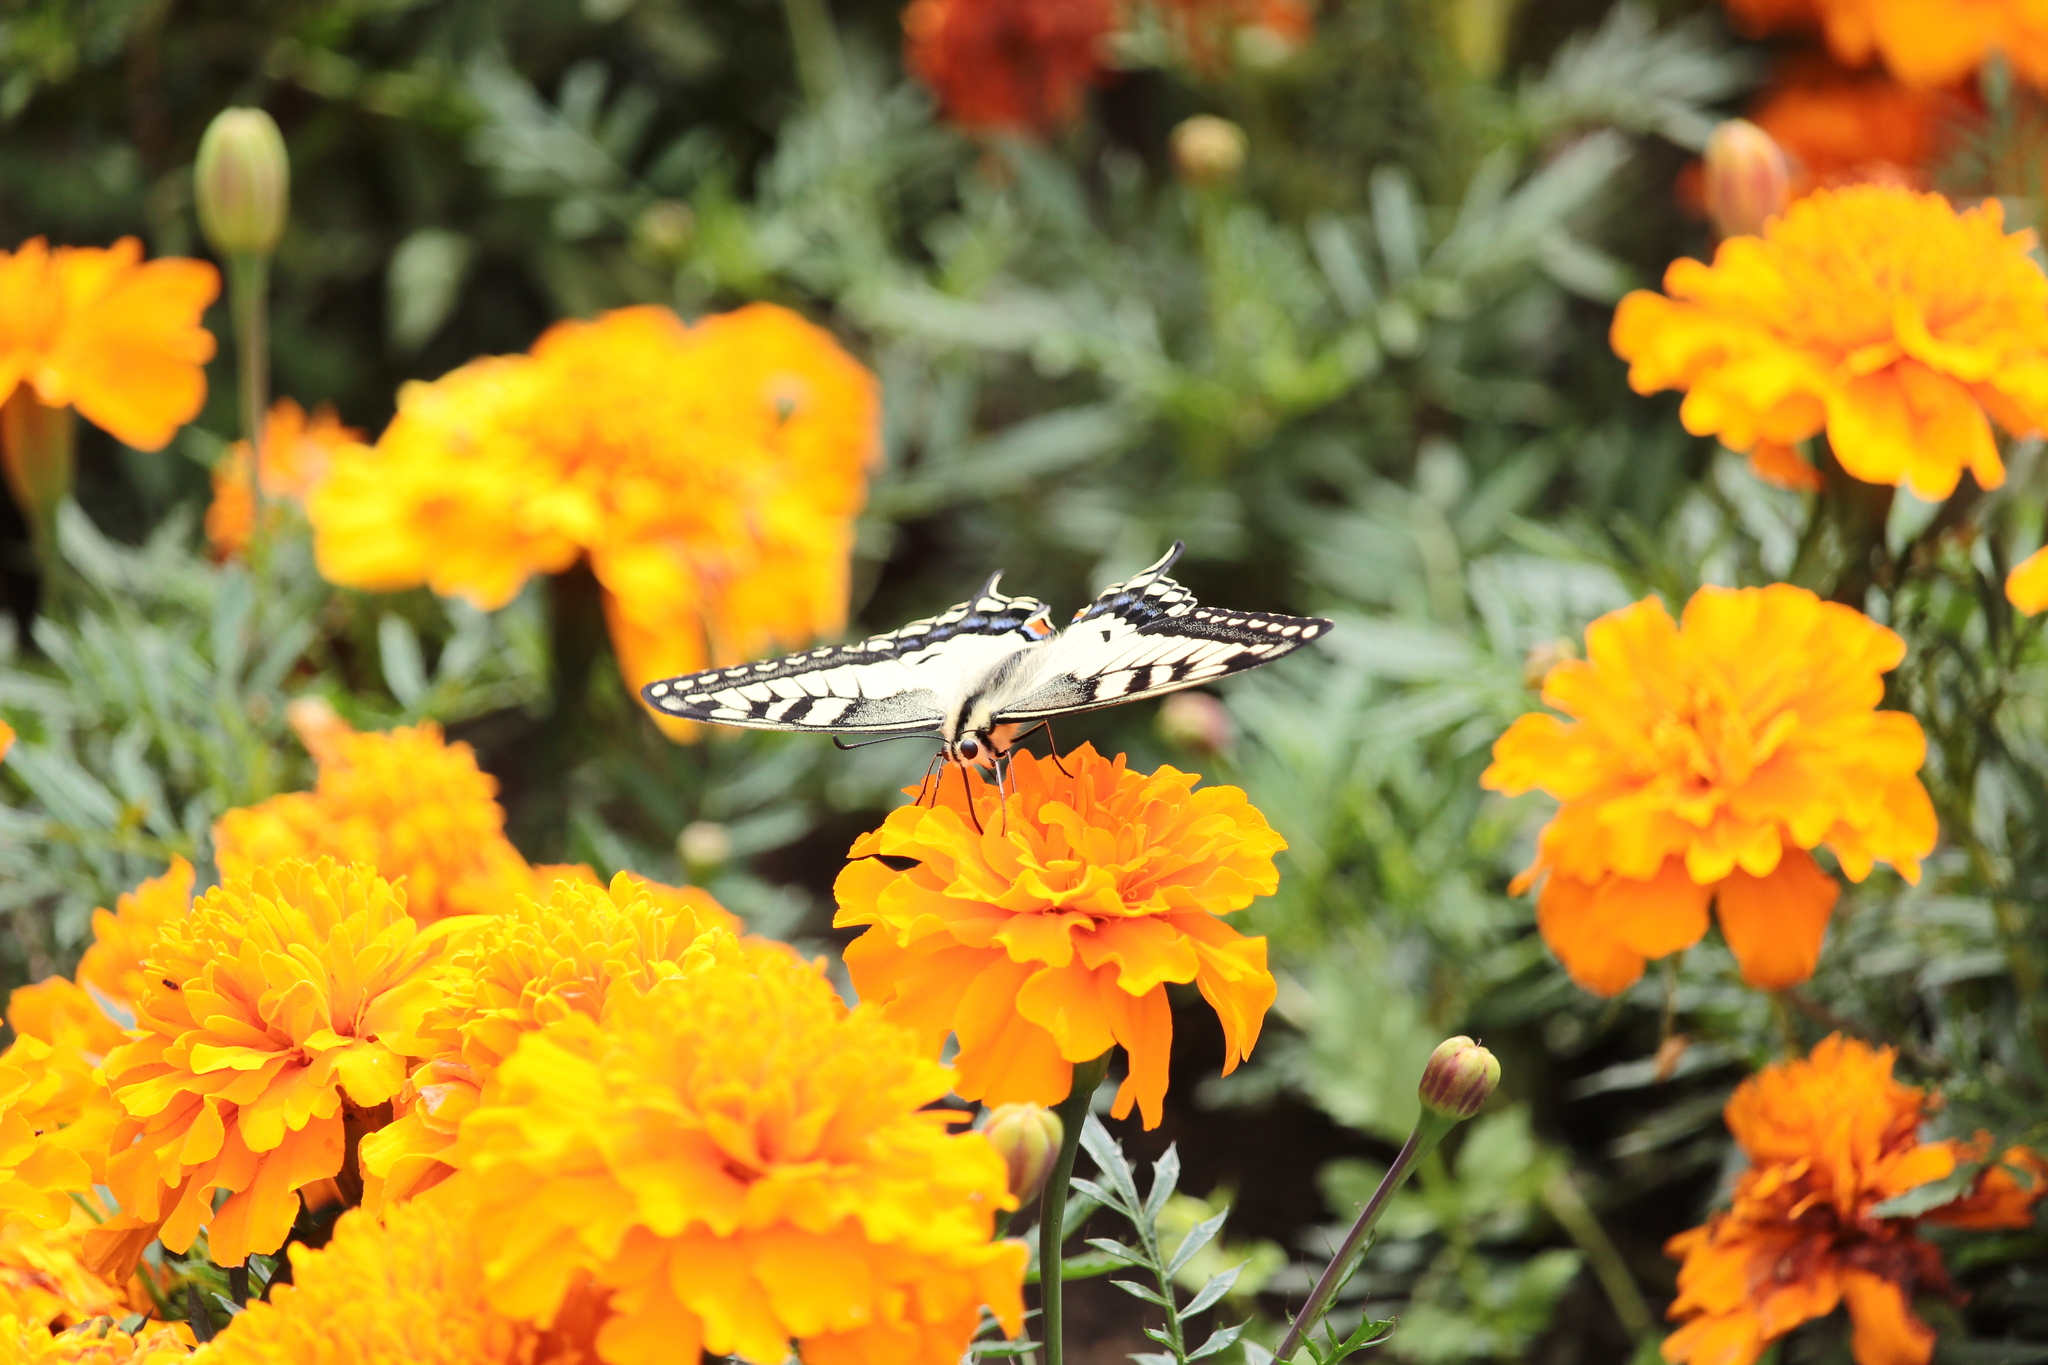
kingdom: Animalia
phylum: Arthropoda
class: Insecta
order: Lepidoptera
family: Papilionidae
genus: Papilio
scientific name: Papilio machaon
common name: Swallowtail
